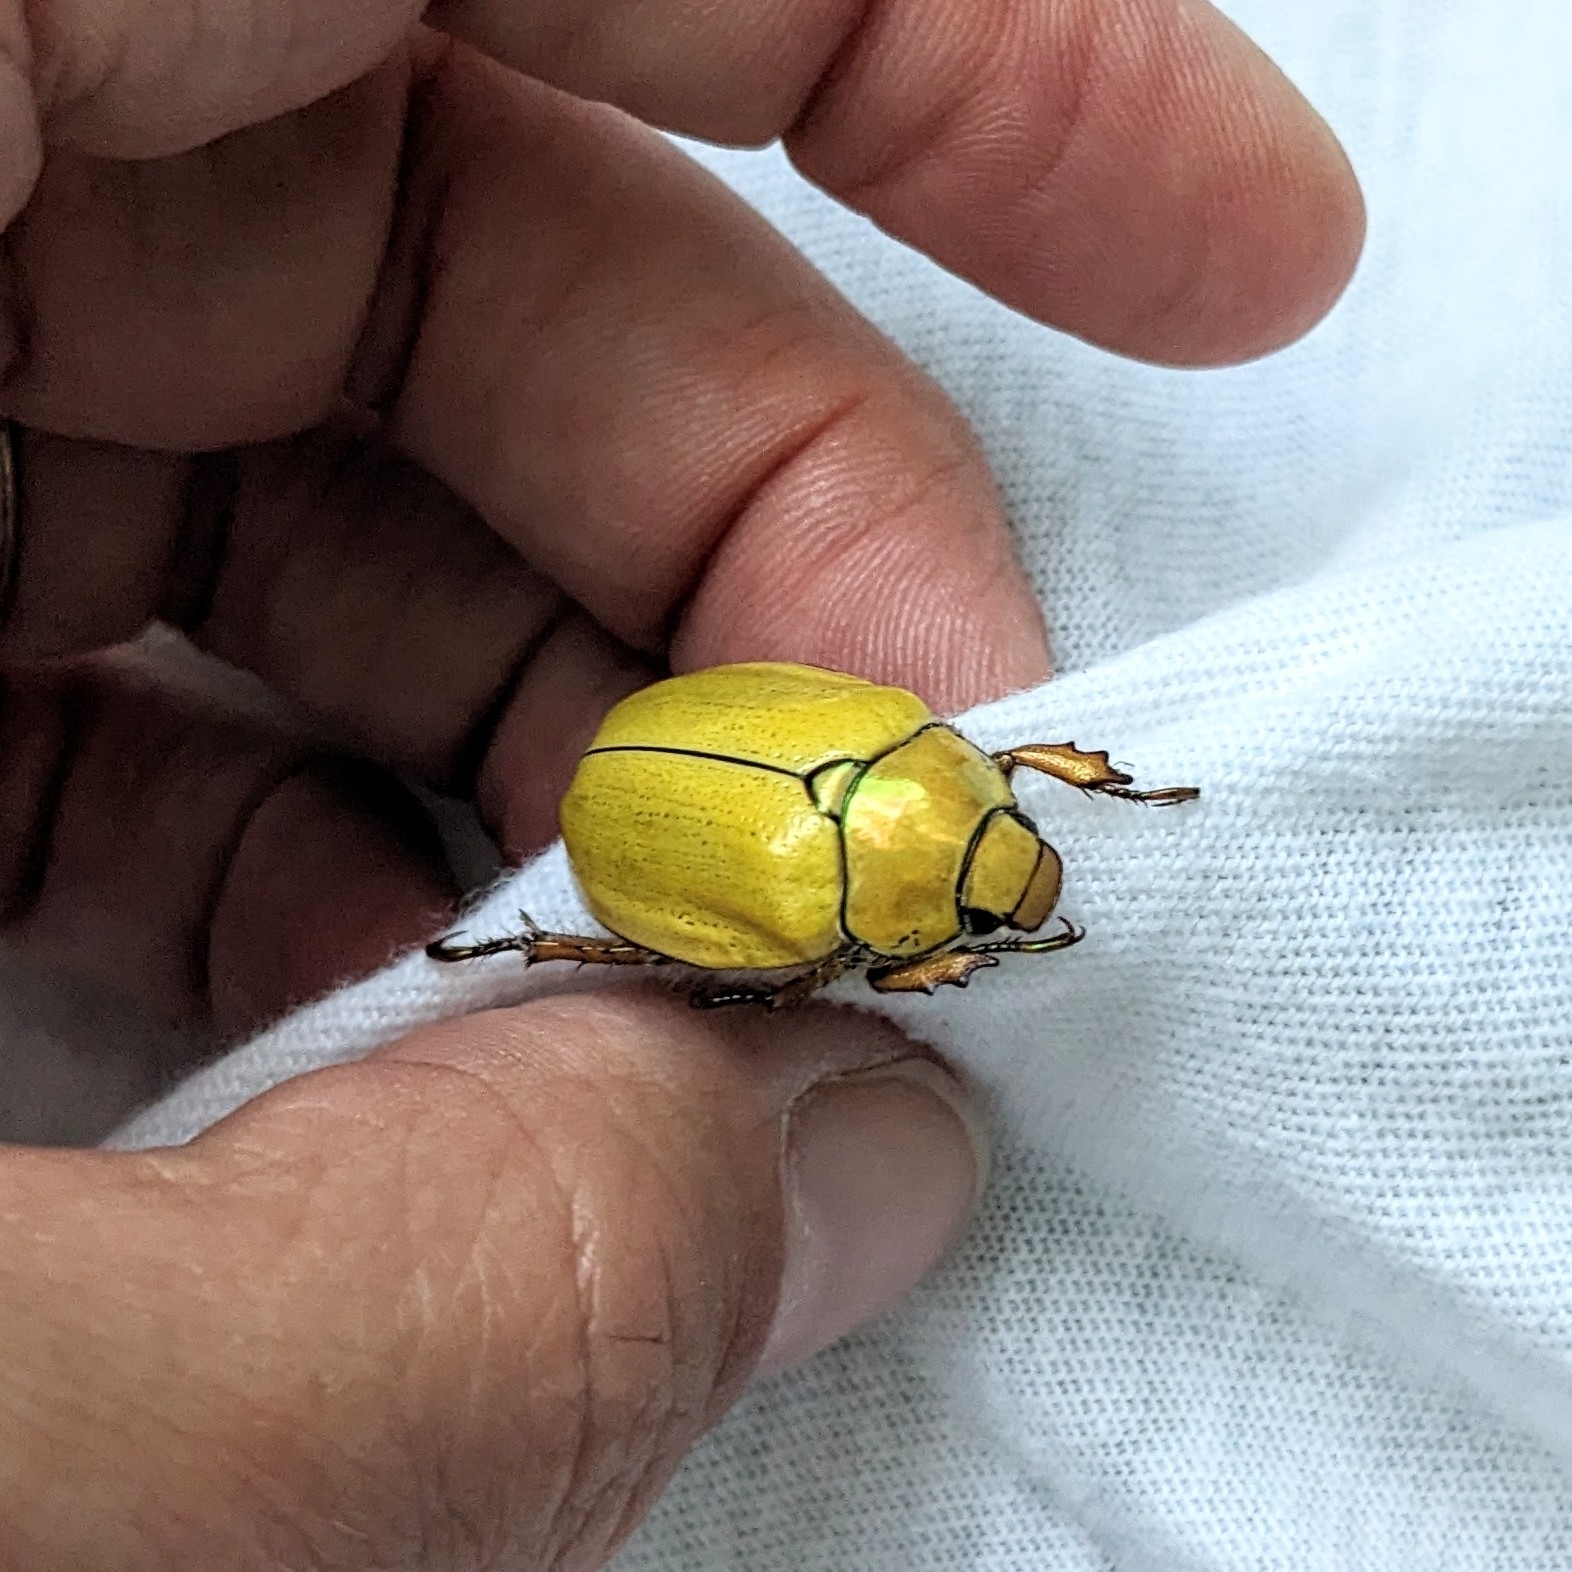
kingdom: Animalia
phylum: Arthropoda
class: Insecta
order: Coleoptera
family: Scarabaeidae
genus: Cotalpa
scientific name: Cotalpa lanigera
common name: Goldsmith beetle
